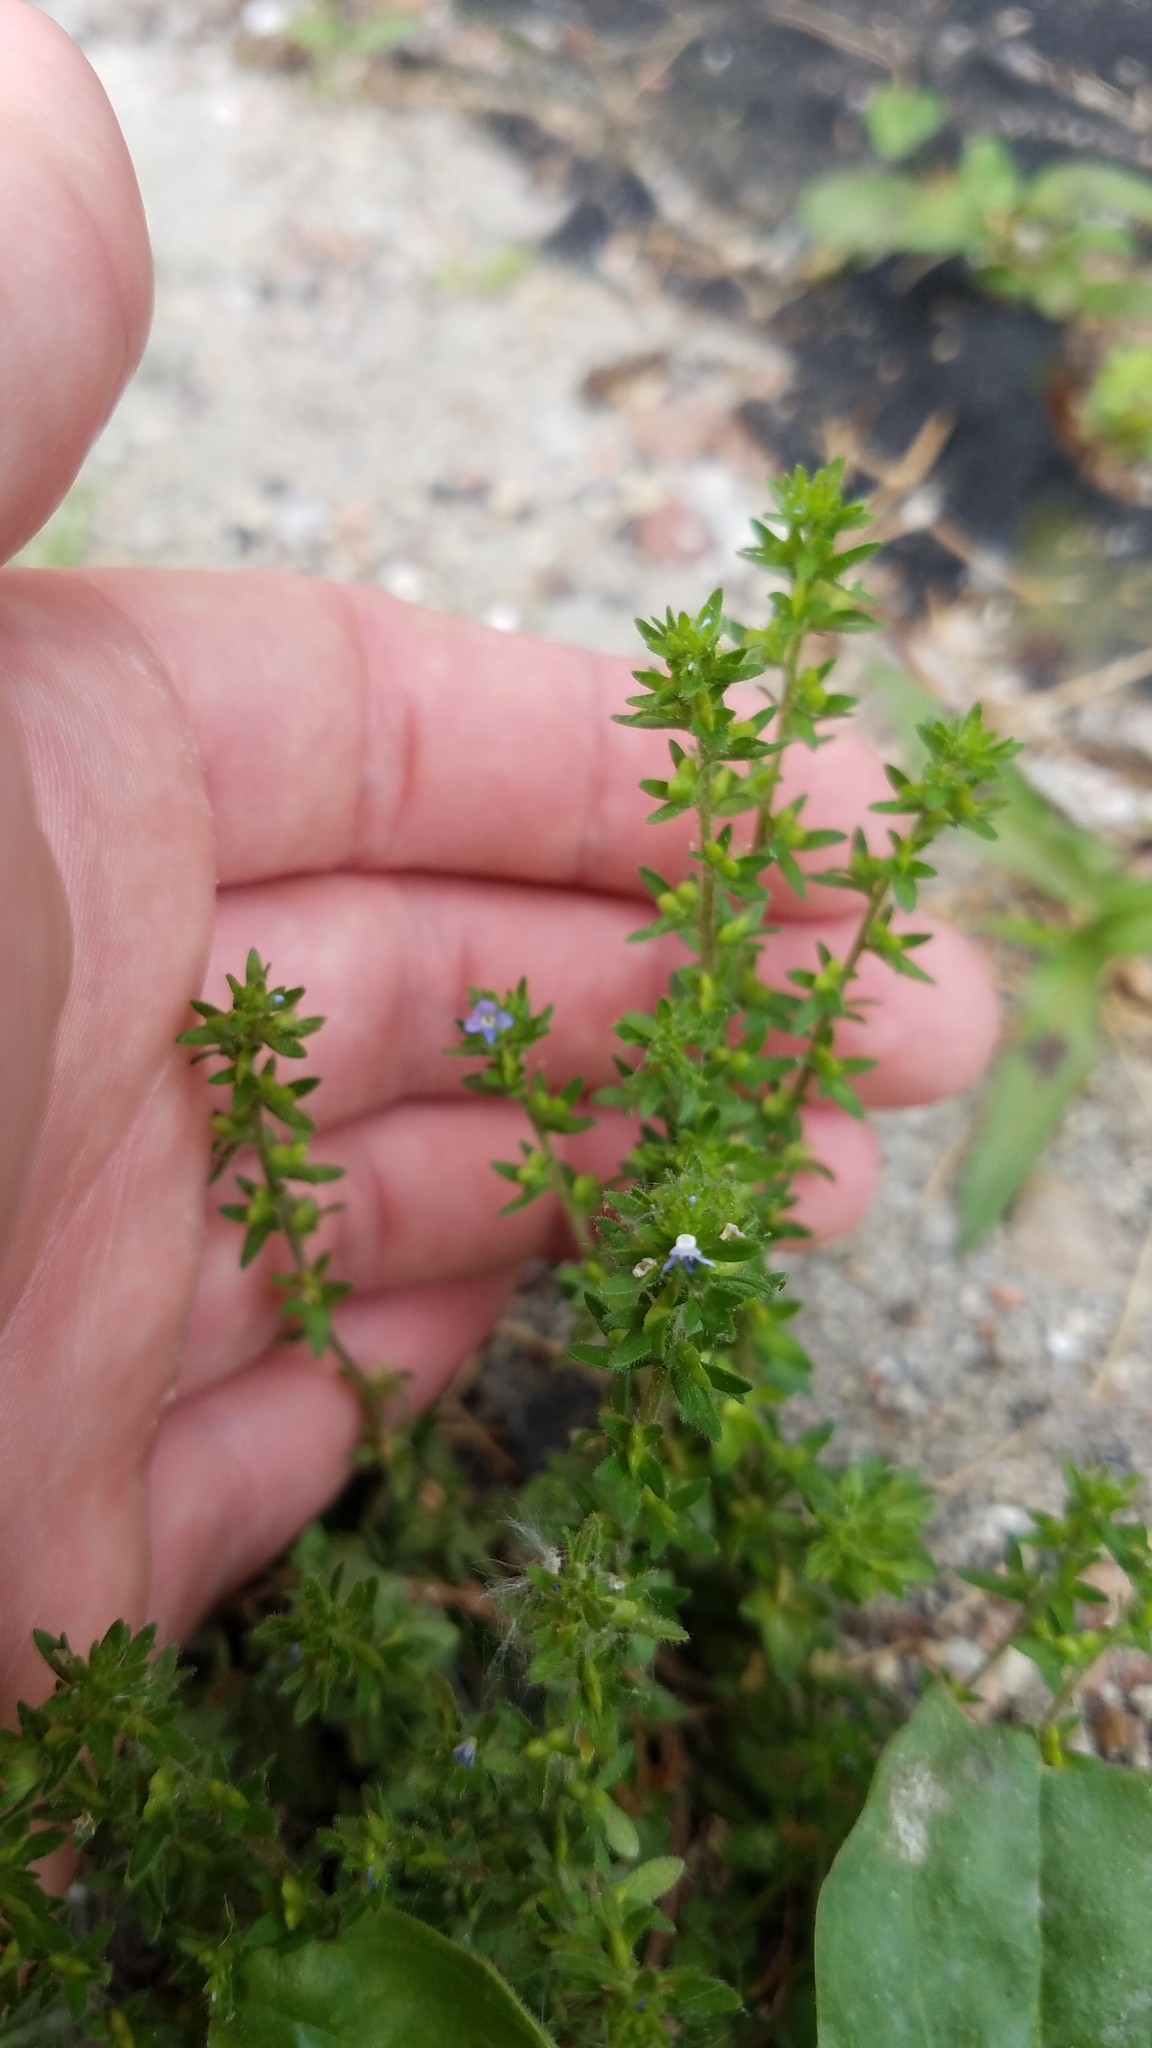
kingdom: Plantae
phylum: Tracheophyta
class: Magnoliopsida
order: Lamiales
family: Plantaginaceae
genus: Veronica
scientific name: Veronica arvensis
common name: Corn speedwell
